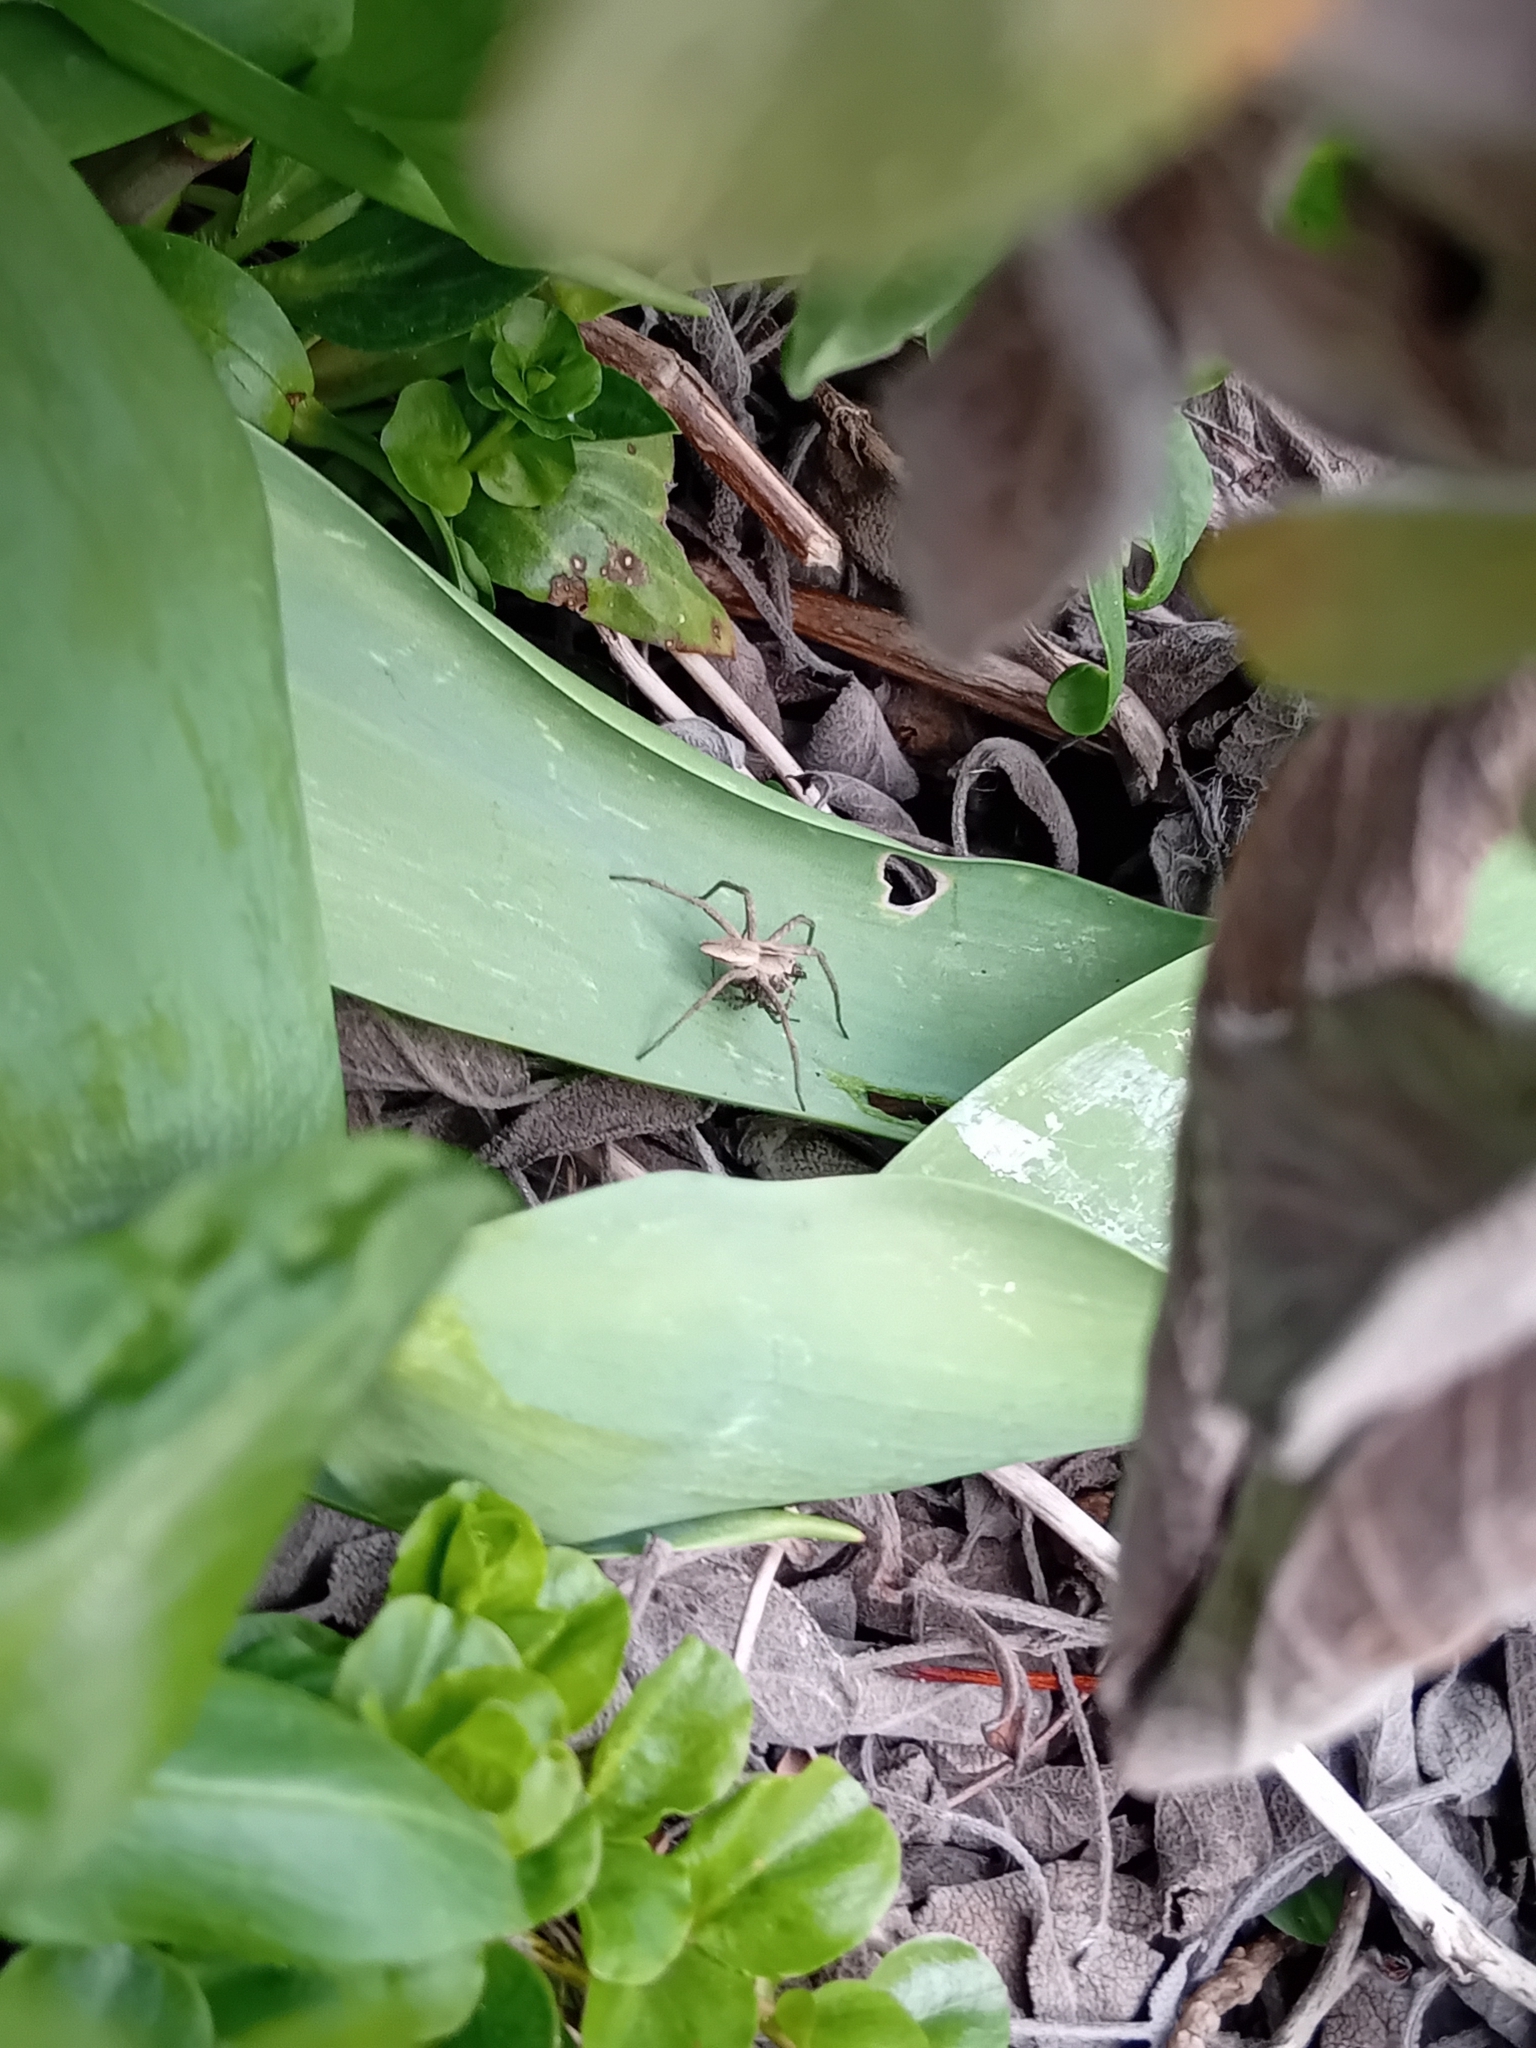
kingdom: Animalia
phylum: Arthropoda
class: Arachnida
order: Araneae
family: Pisauridae
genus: Pisaura
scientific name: Pisaura mirabilis
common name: Tent spider
